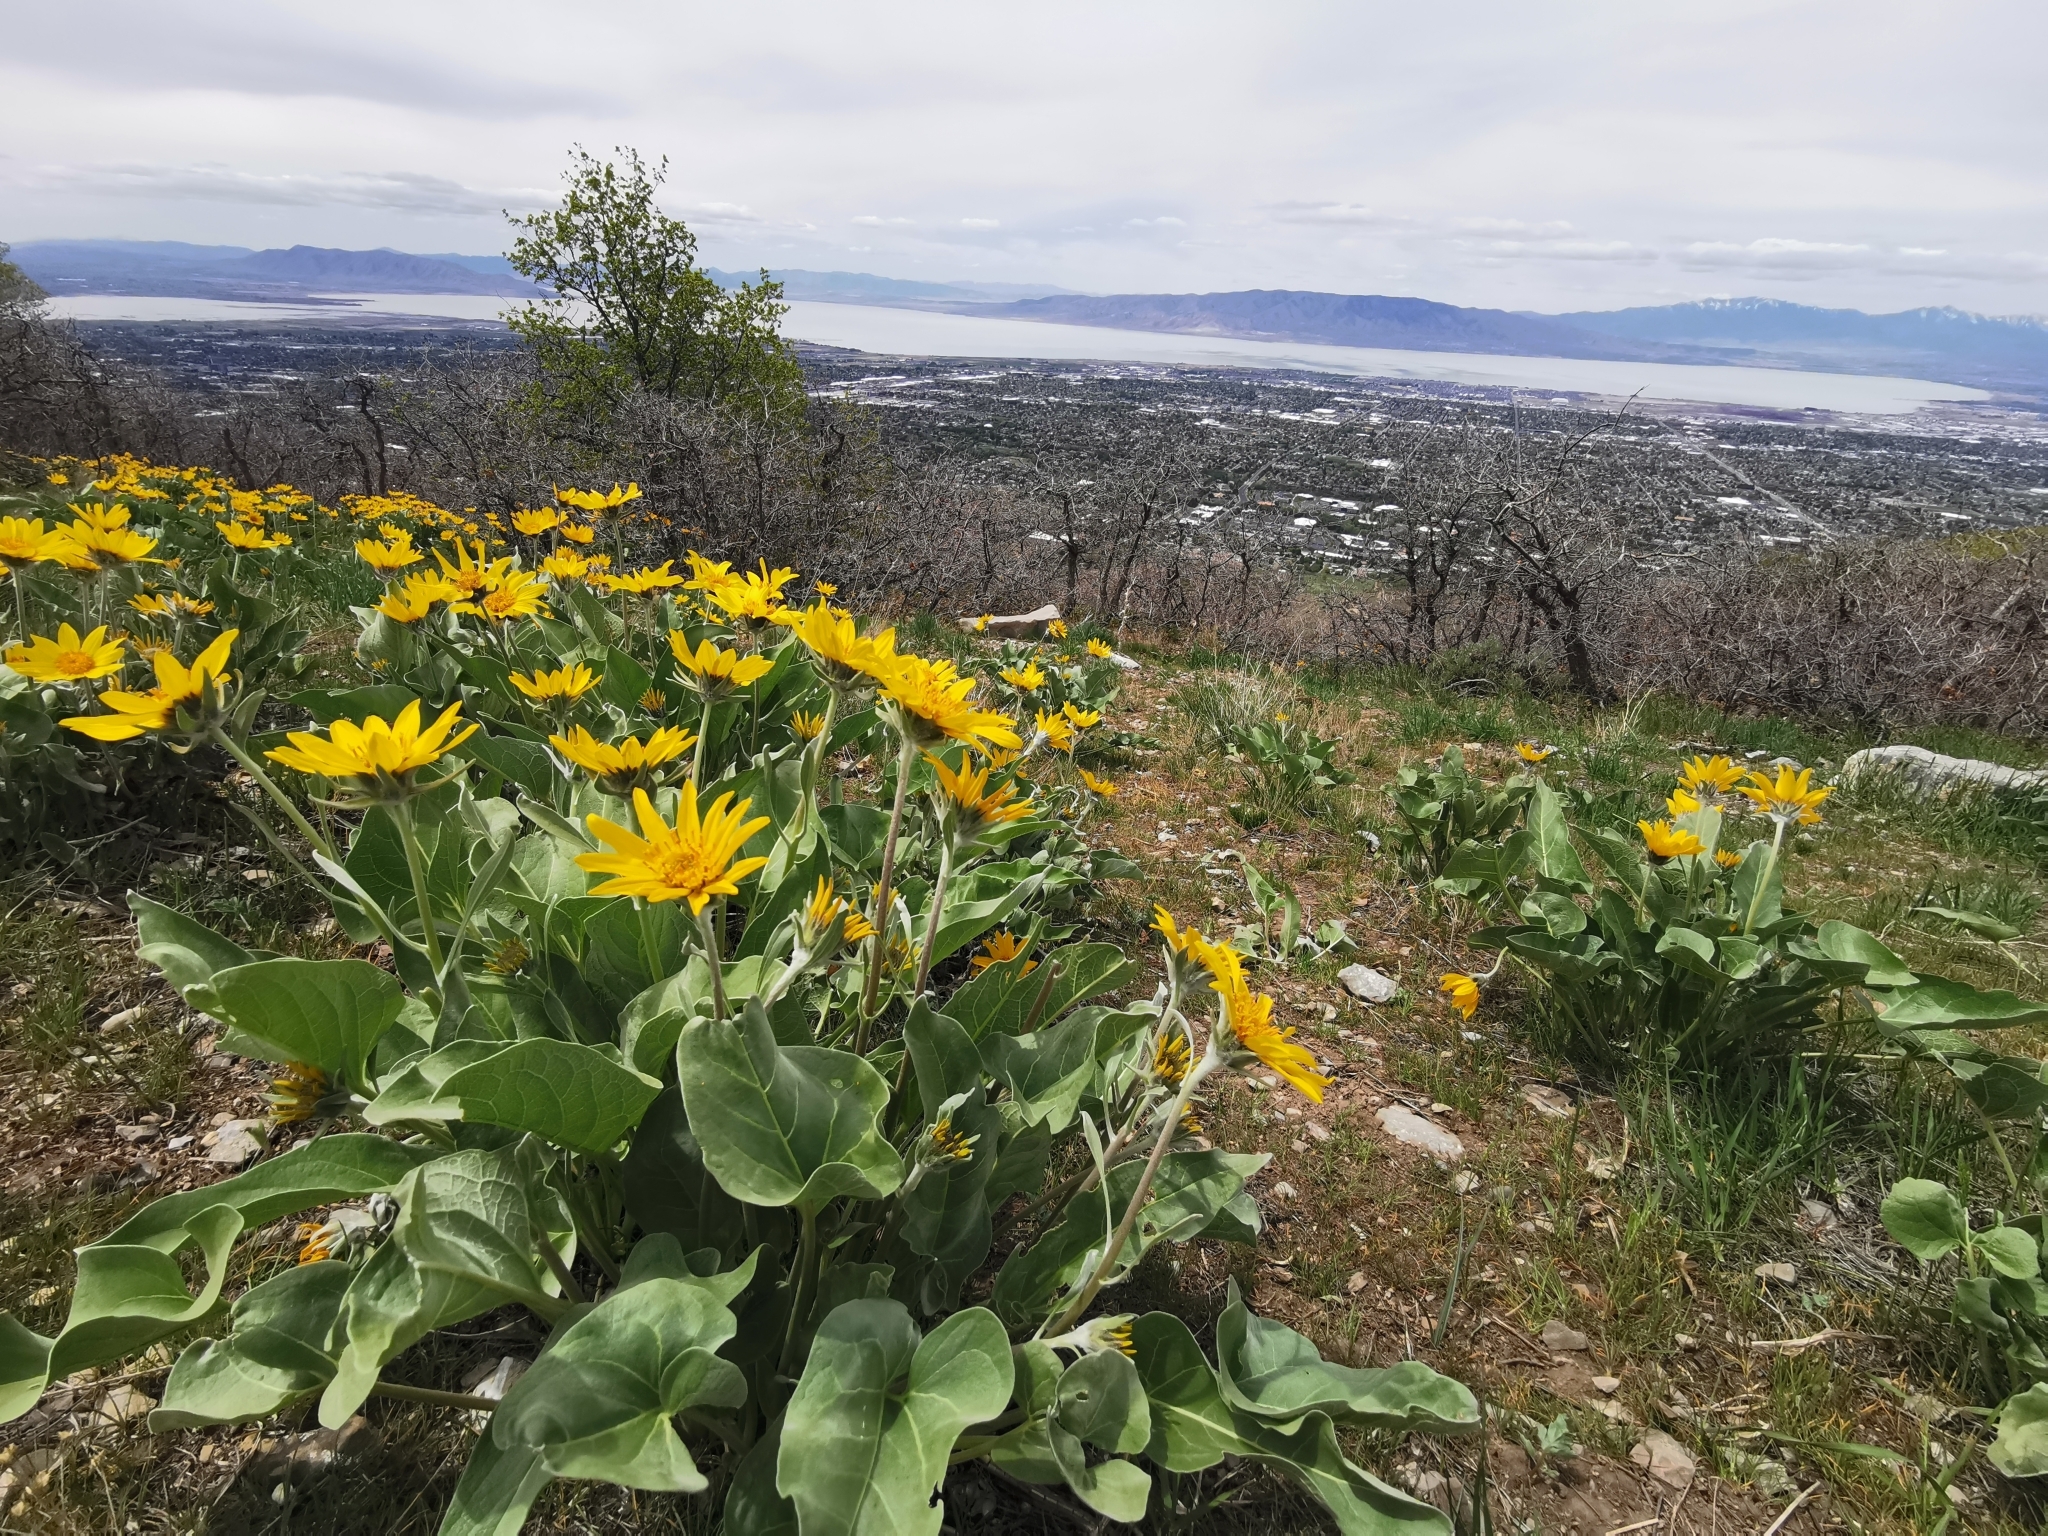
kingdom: Plantae
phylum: Tracheophyta
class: Magnoliopsida
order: Asterales
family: Asteraceae
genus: Wyethia
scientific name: Wyethia sagittata
